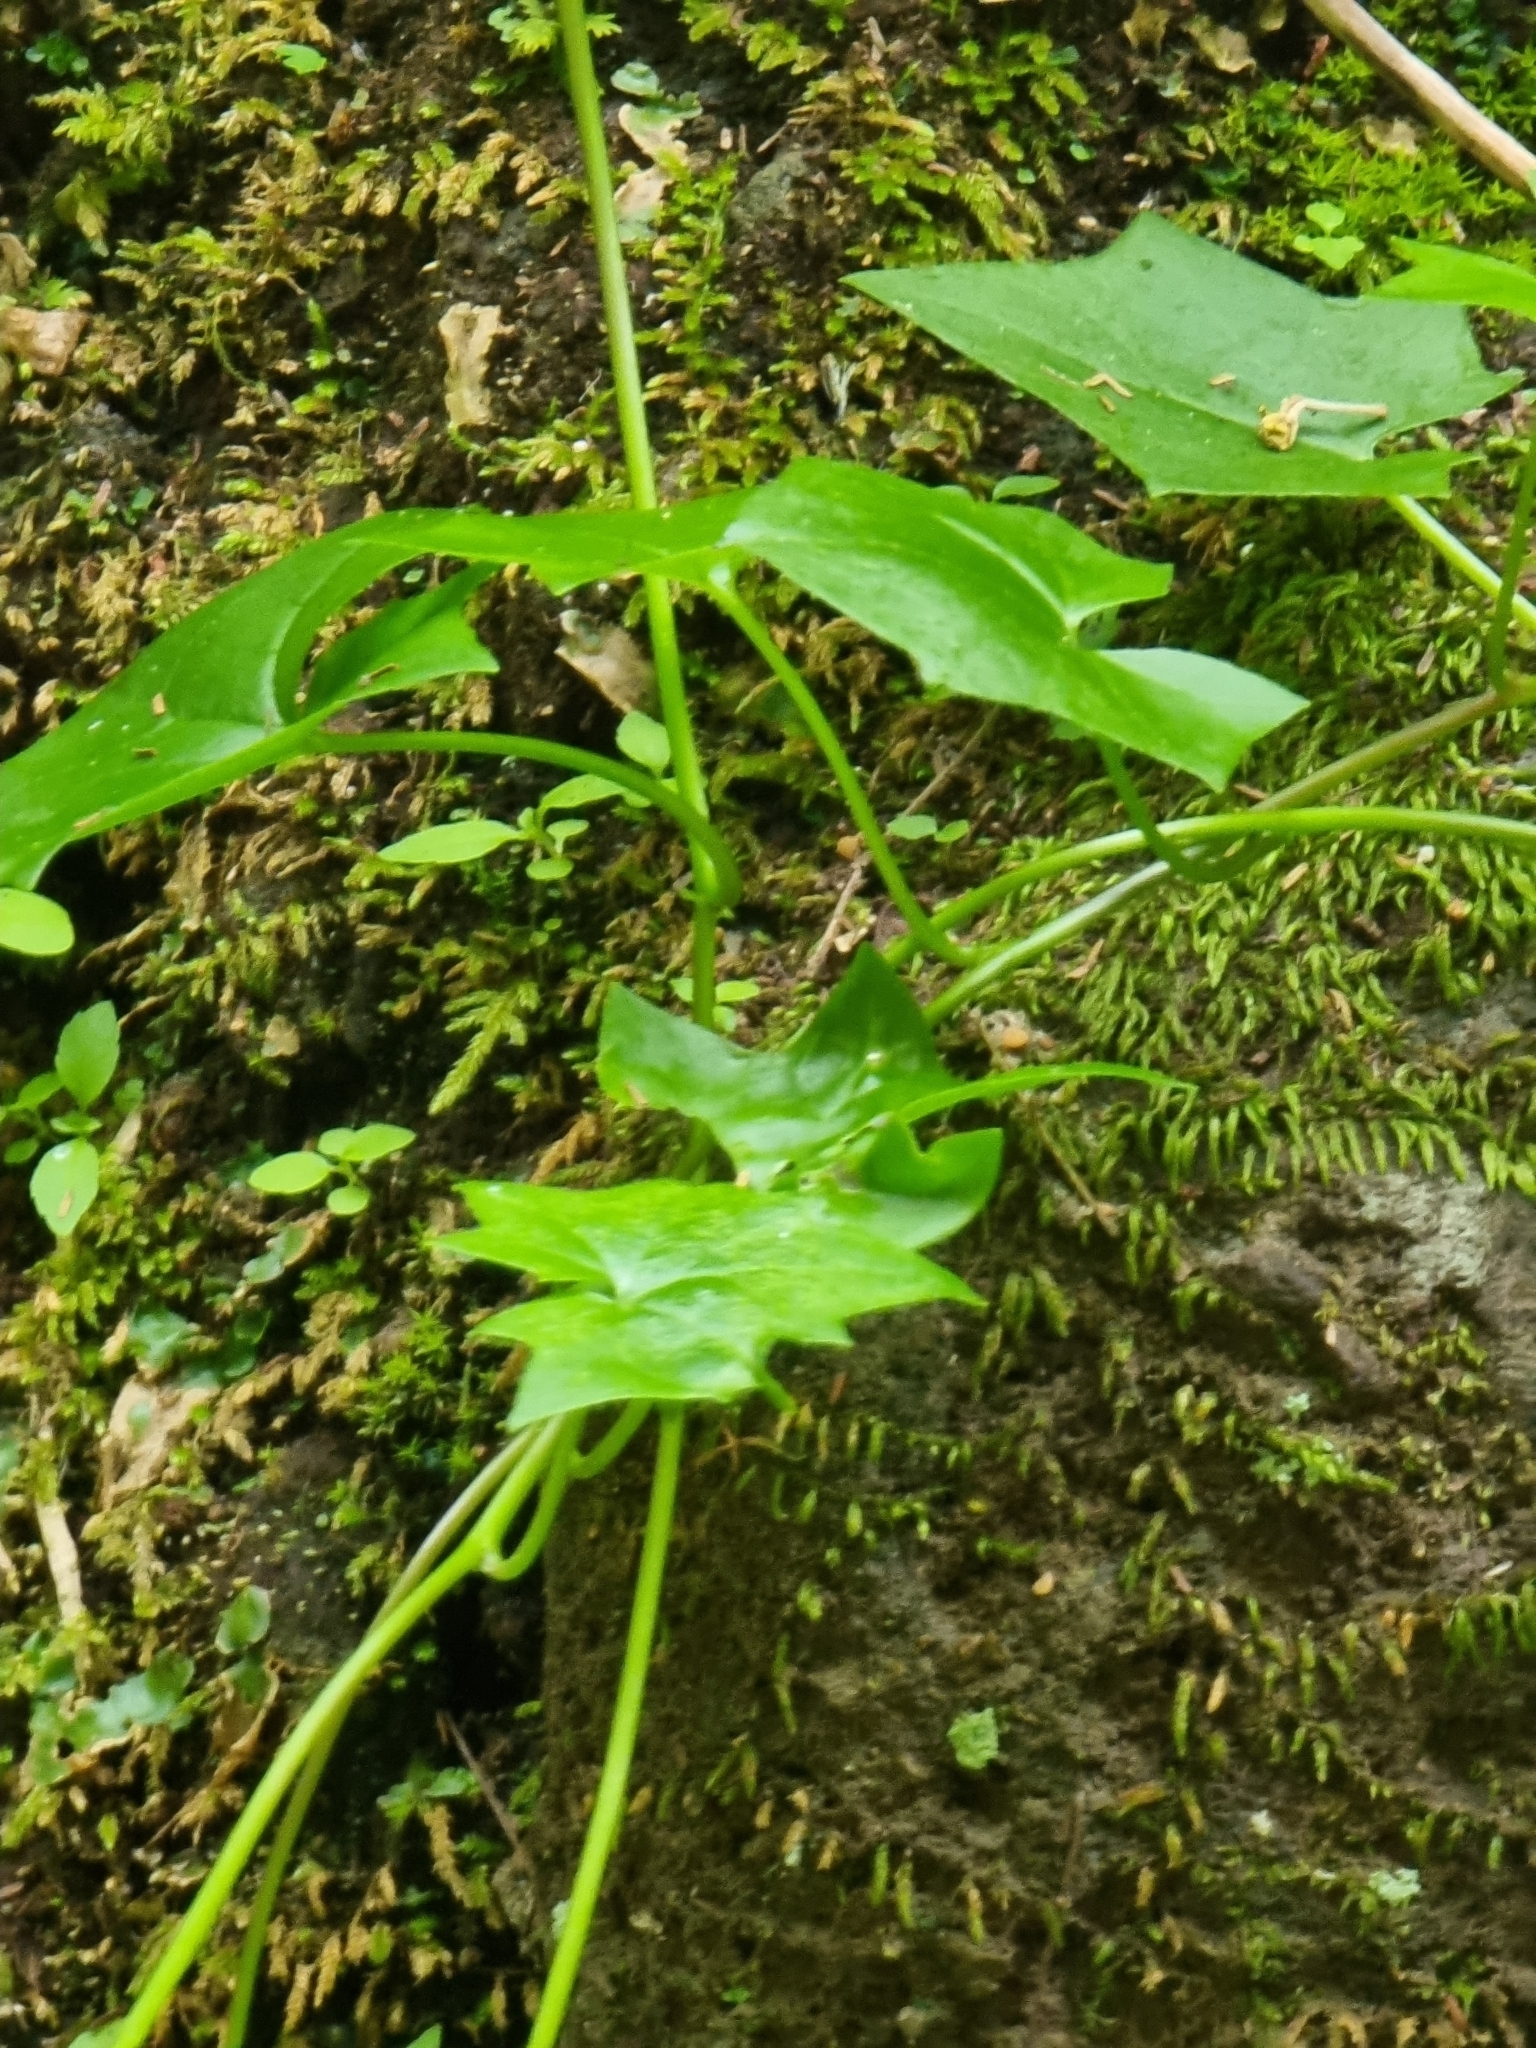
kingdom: Plantae
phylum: Tracheophyta
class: Magnoliopsida
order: Asterales
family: Asteraceae
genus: Delairea
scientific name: Delairea odorata
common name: Cape-ivy
